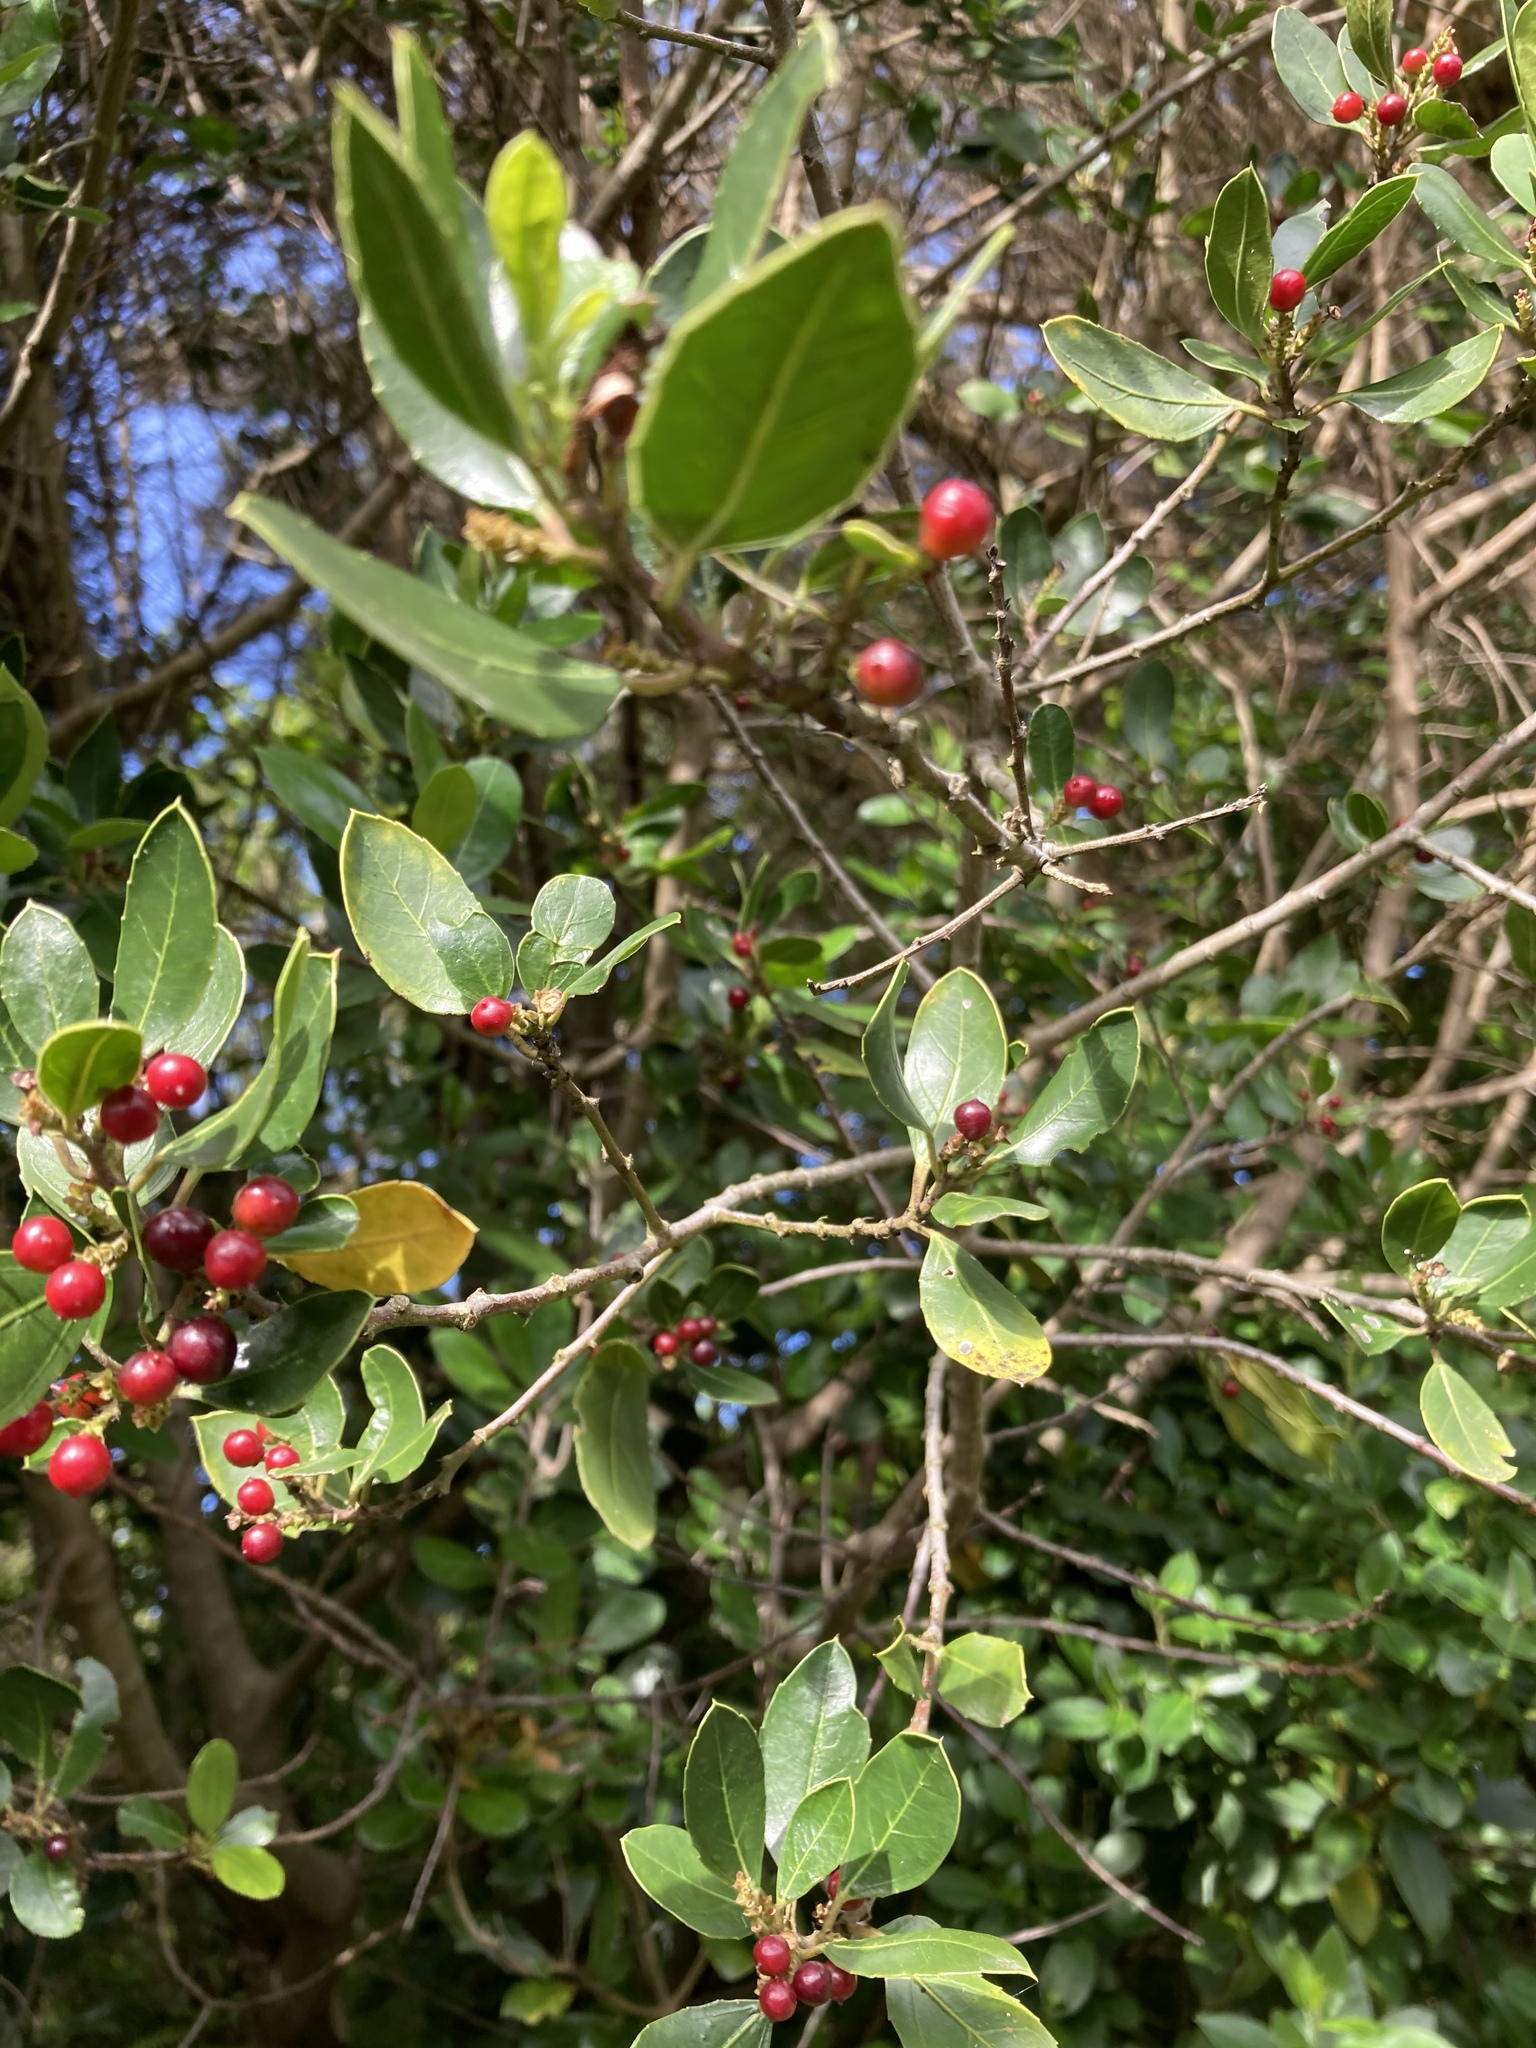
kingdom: Plantae
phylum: Tracheophyta
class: Magnoliopsida
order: Rosales
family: Rhamnaceae
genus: Rhamnus
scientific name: Rhamnus alaternus
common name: Mediterranean buckthorn
